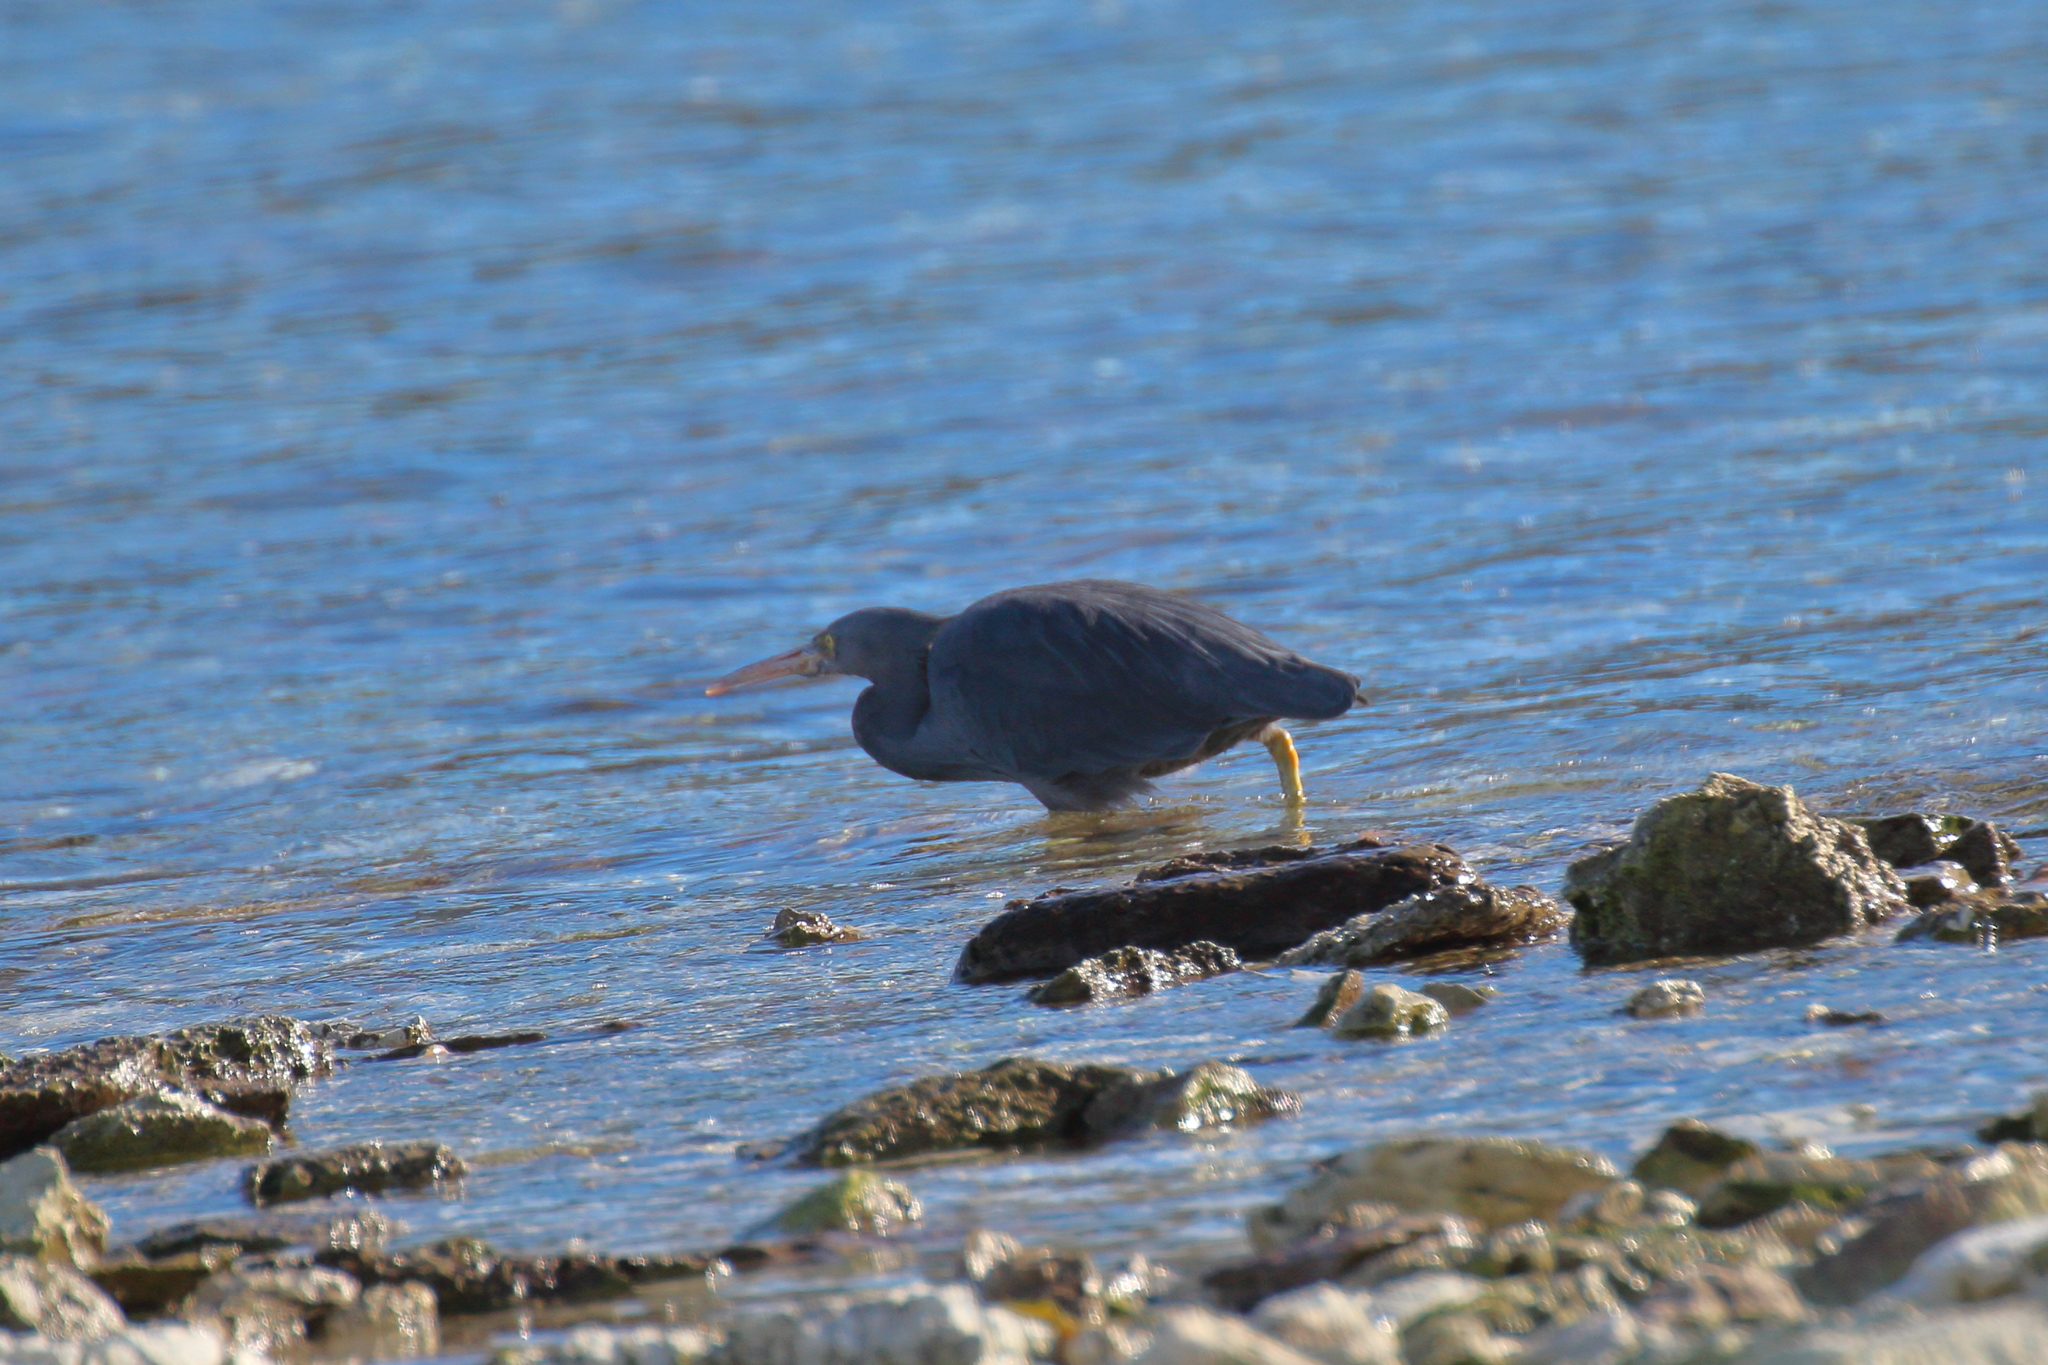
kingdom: Animalia
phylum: Chordata
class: Aves
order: Pelecaniformes
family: Ardeidae
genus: Egretta
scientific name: Egretta sacra
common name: Pacific reef heron
